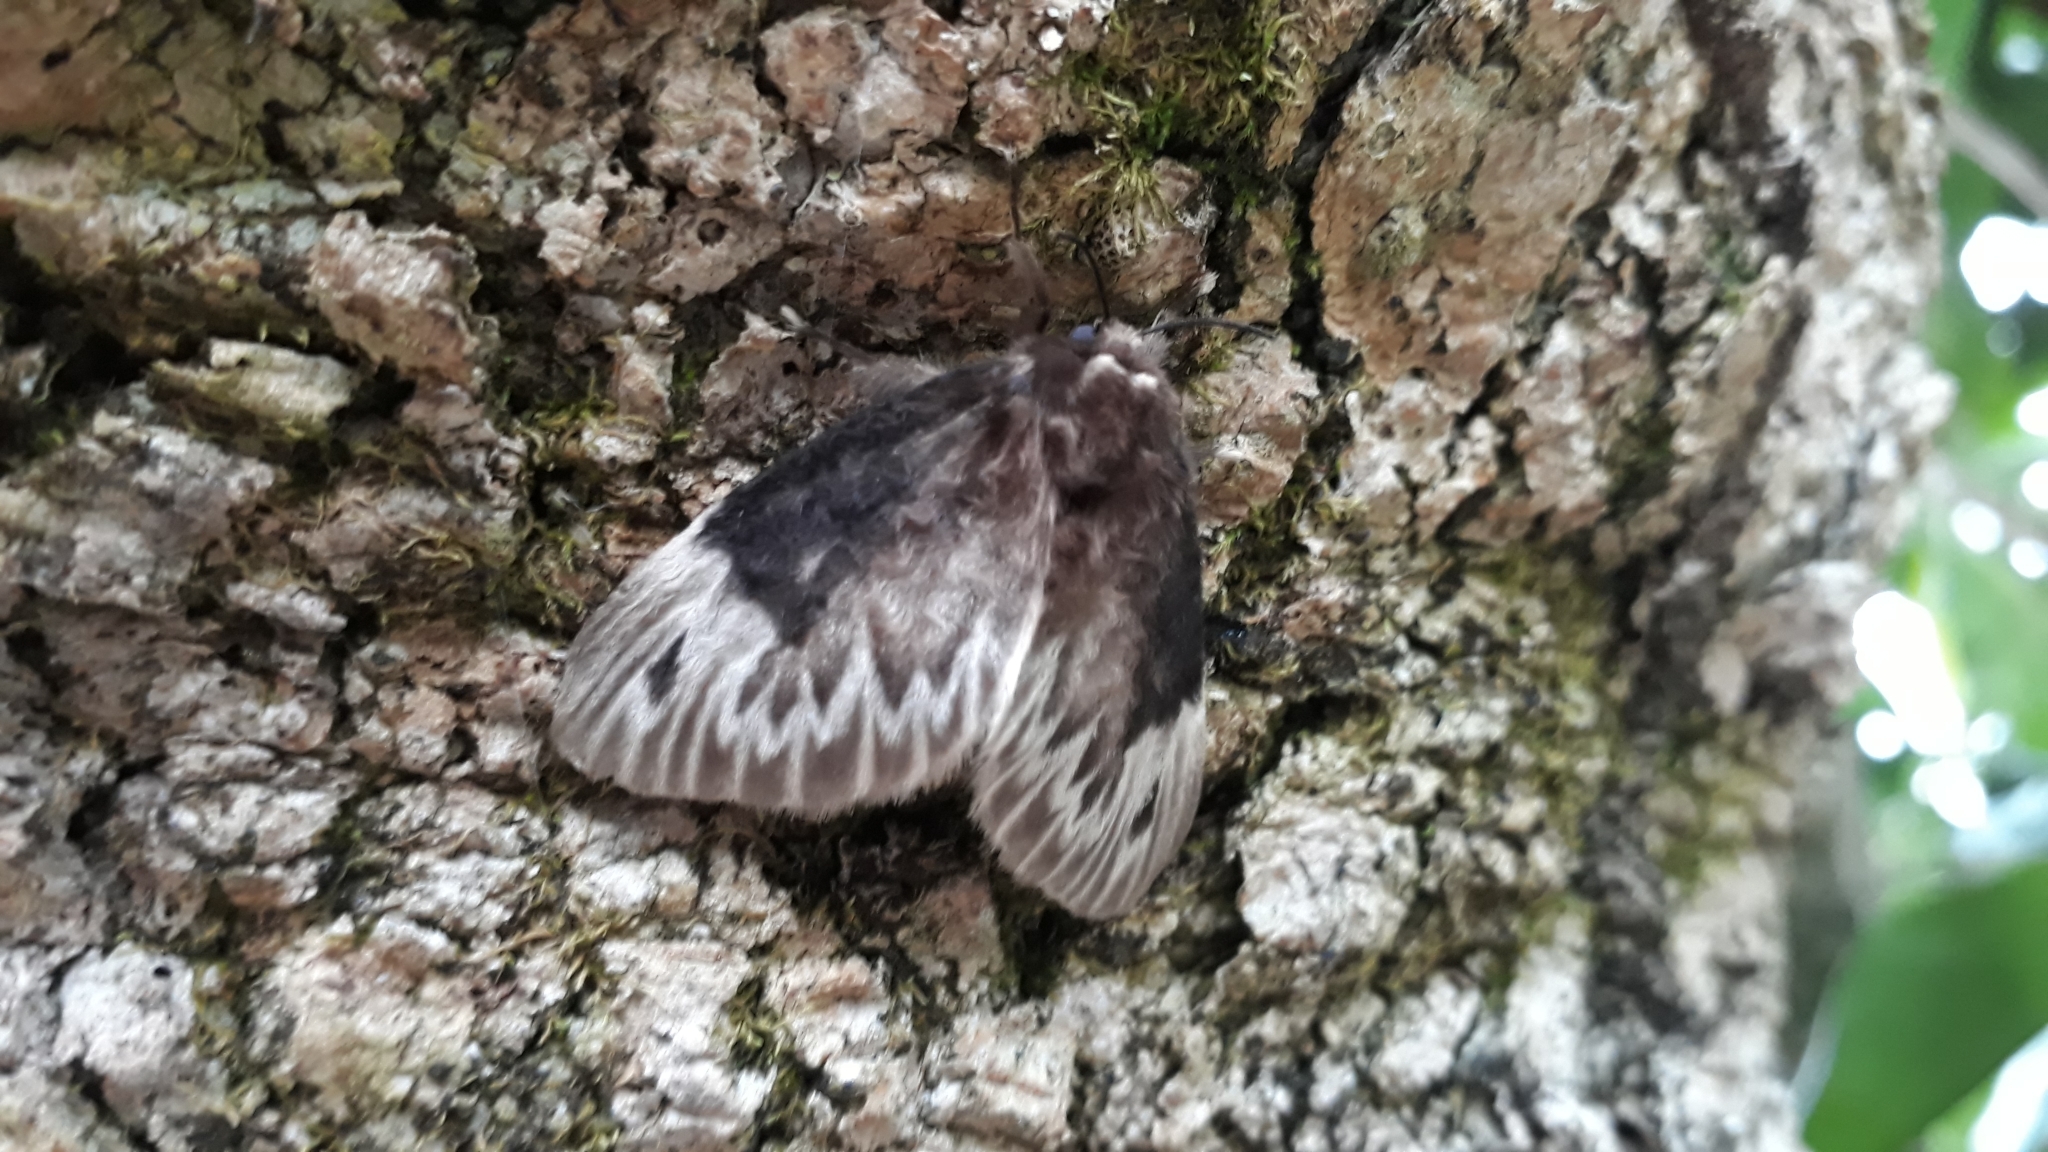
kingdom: Animalia
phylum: Arthropoda
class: Insecta
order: Lepidoptera
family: Megalopygidae
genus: Podalia
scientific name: Podalia
